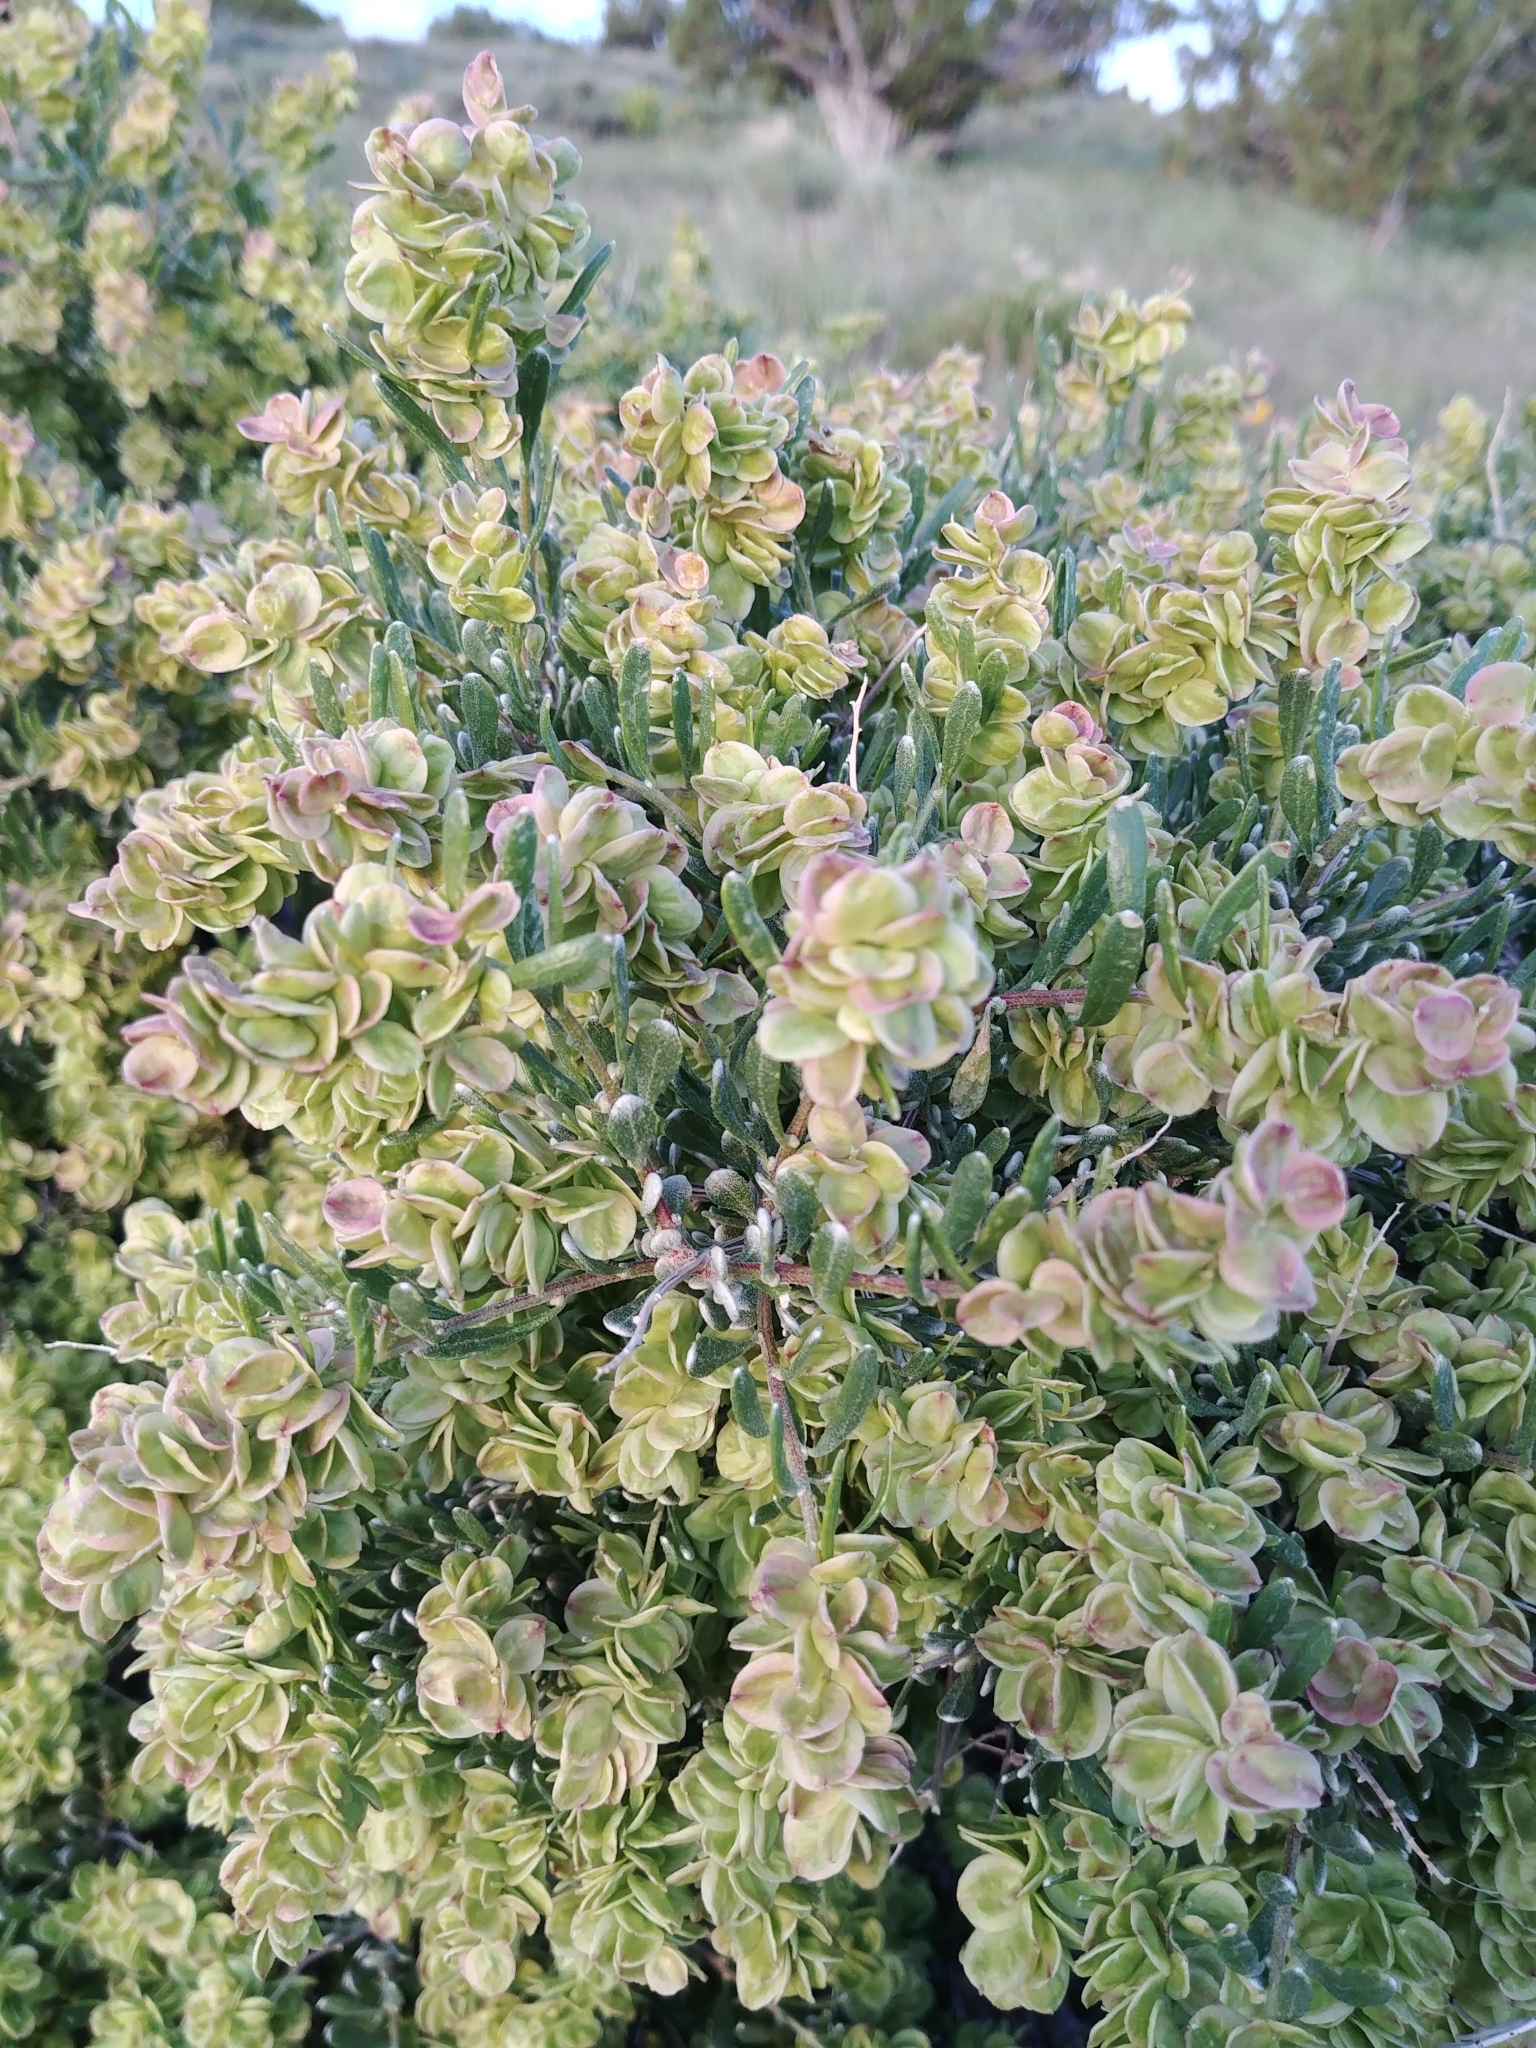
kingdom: Plantae
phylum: Tracheophyta
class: Magnoliopsida
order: Caryophyllales
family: Amaranthaceae
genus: Grayia
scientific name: Grayia spinosa
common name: Spiny hopsage
